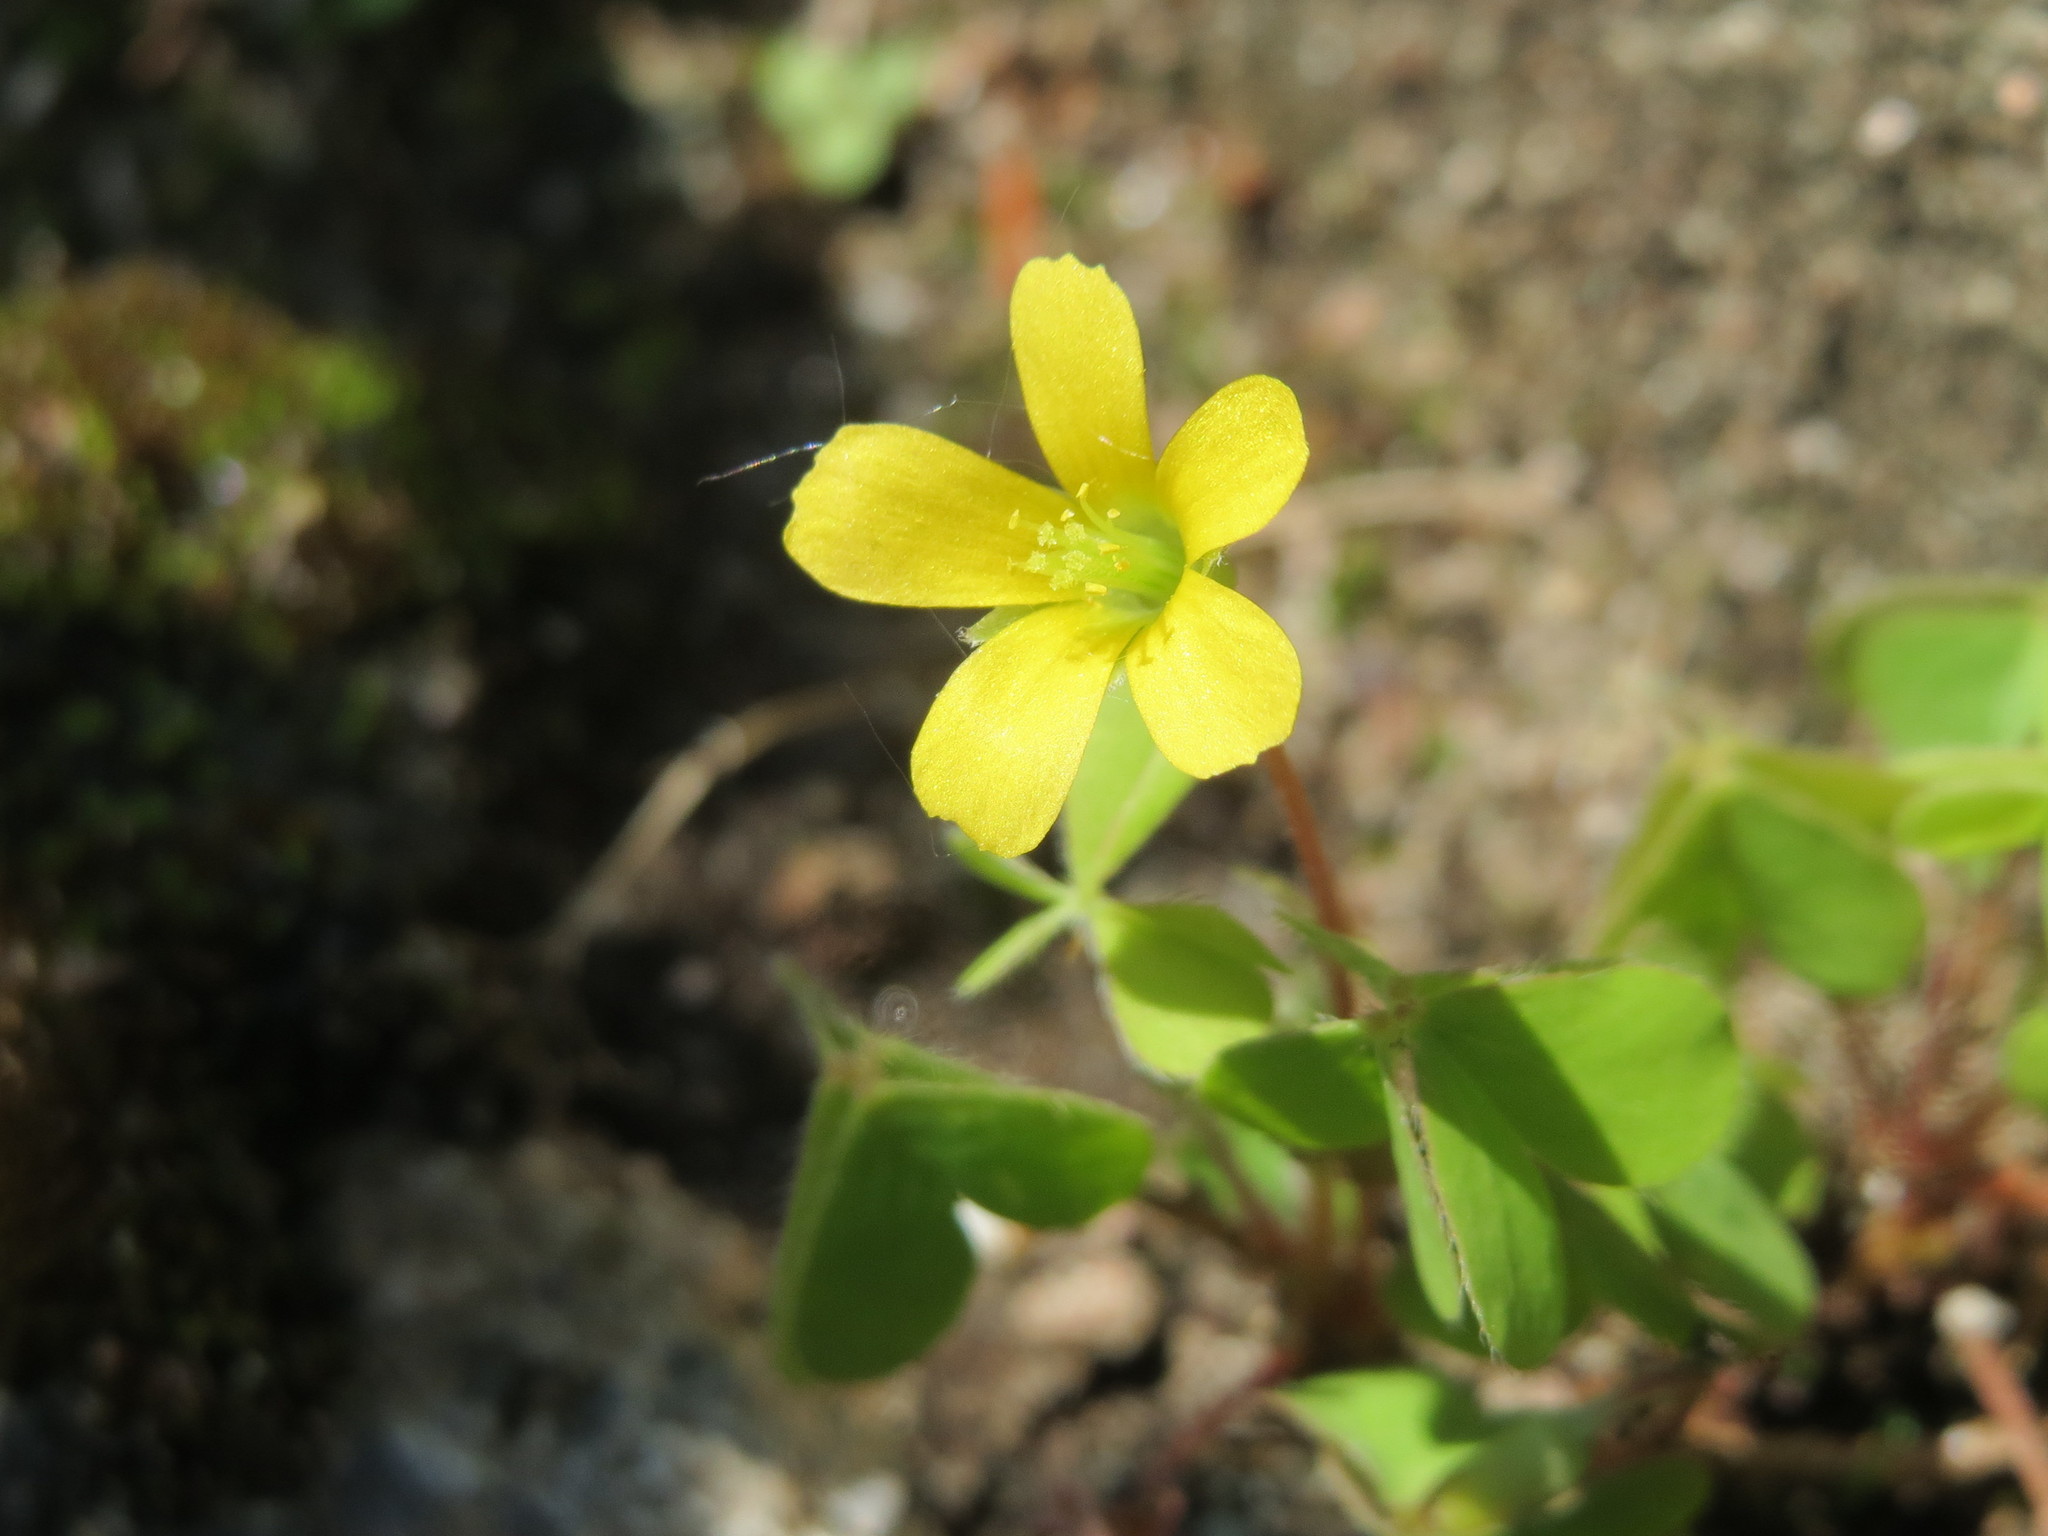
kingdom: Plantae
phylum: Tracheophyta
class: Magnoliopsida
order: Oxalidales
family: Oxalidaceae
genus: Oxalis
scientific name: Oxalis corniculata
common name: Procumbent yellow-sorrel
